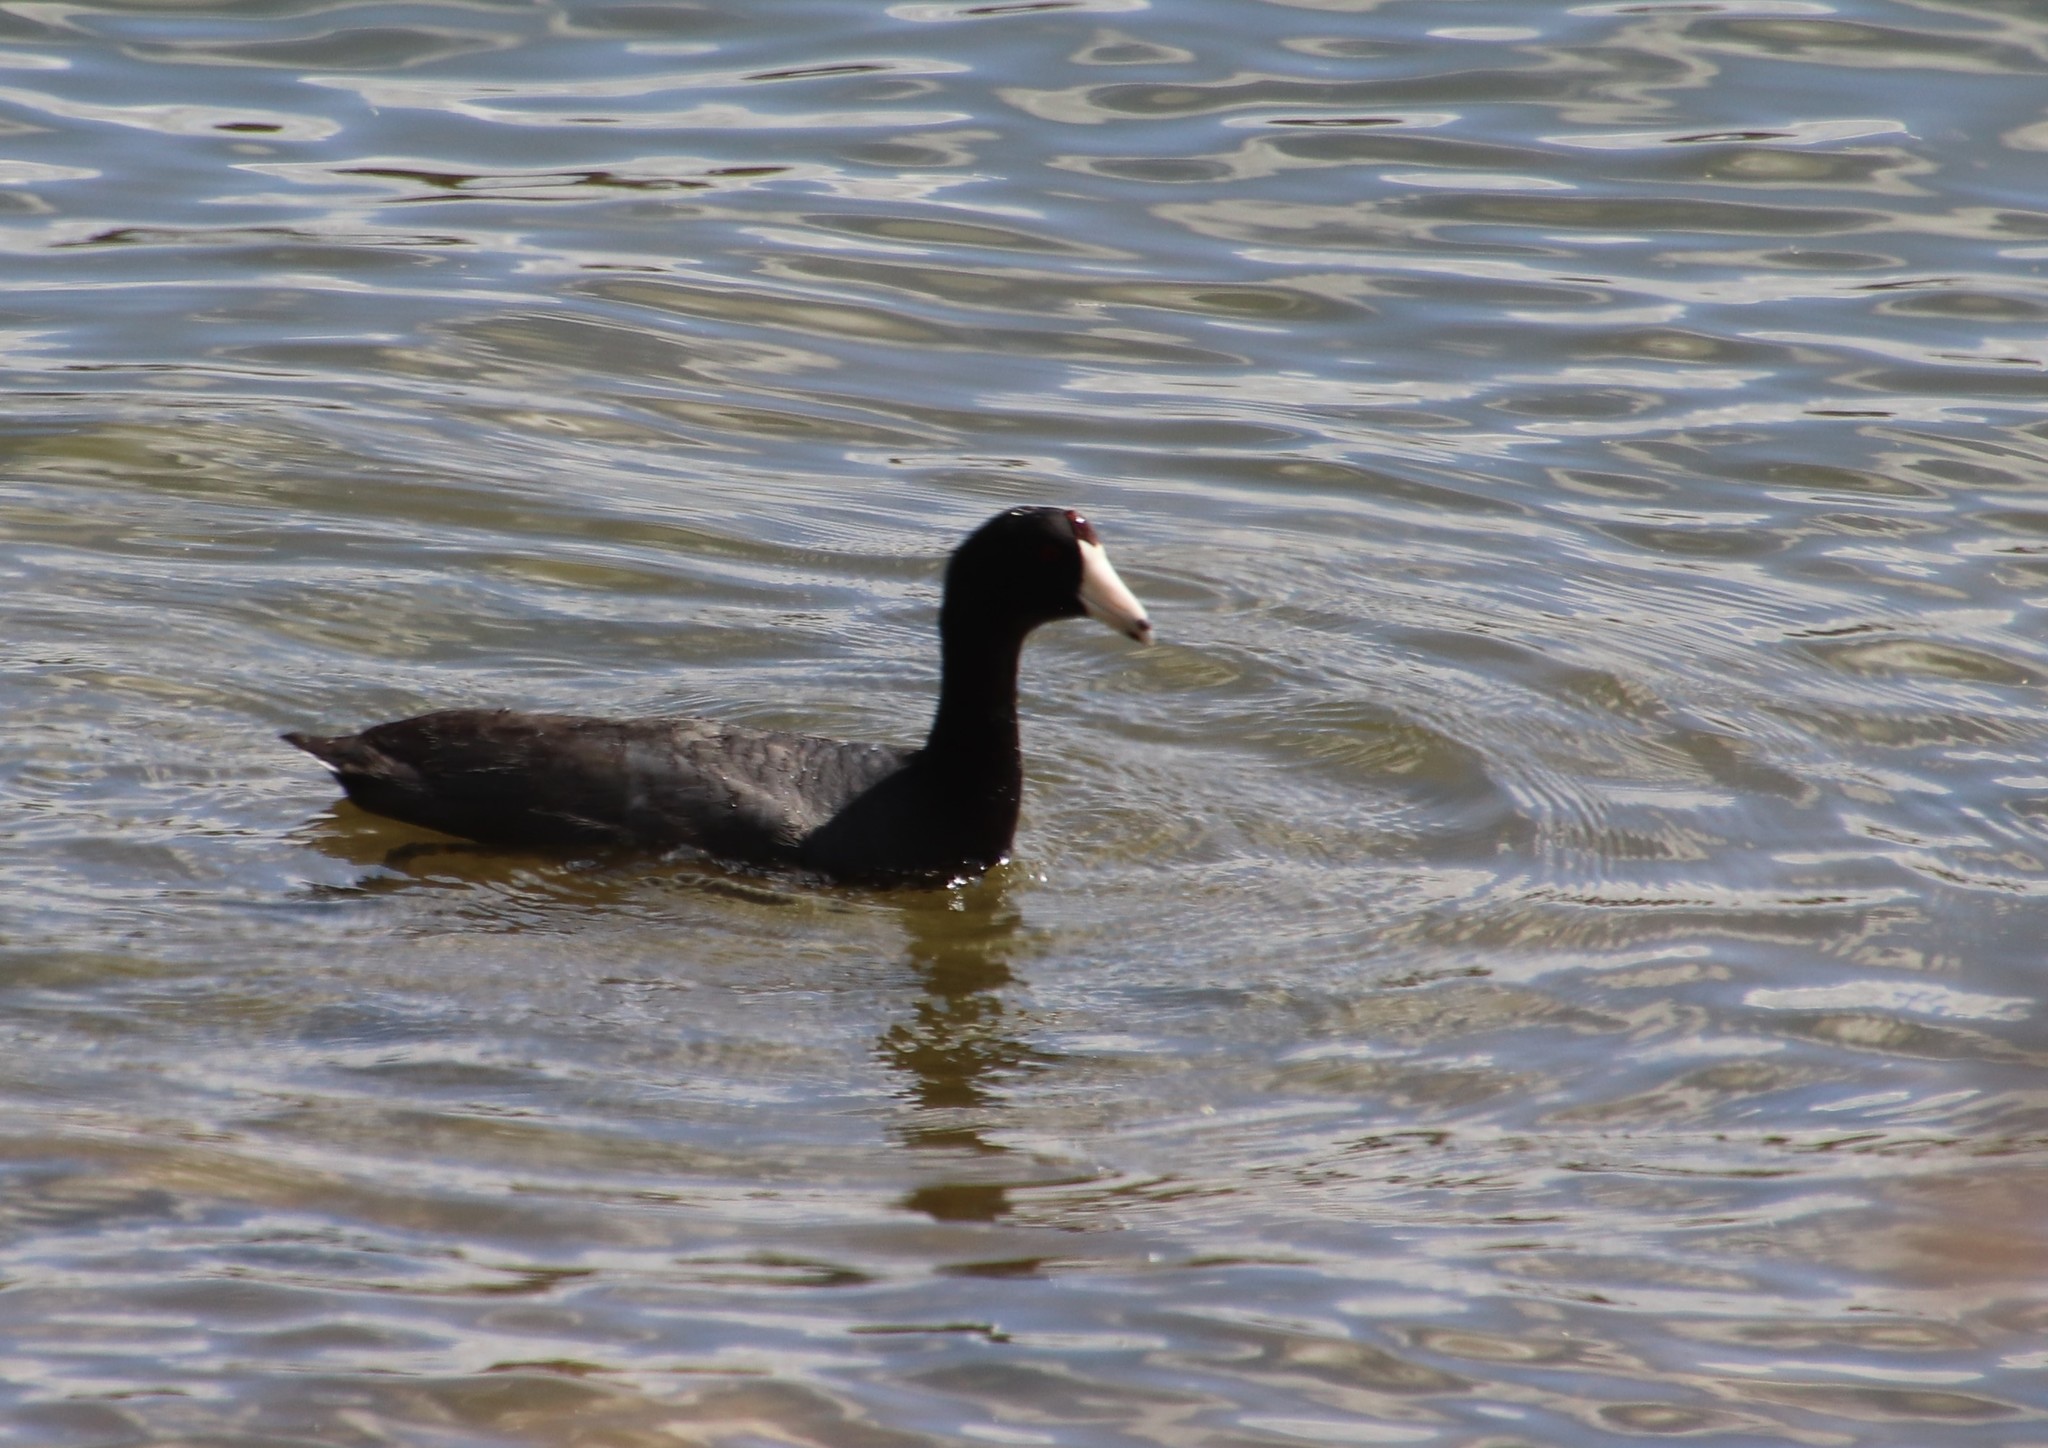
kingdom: Animalia
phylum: Chordata
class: Aves
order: Gruiformes
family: Rallidae
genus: Fulica
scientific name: Fulica americana
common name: American coot
